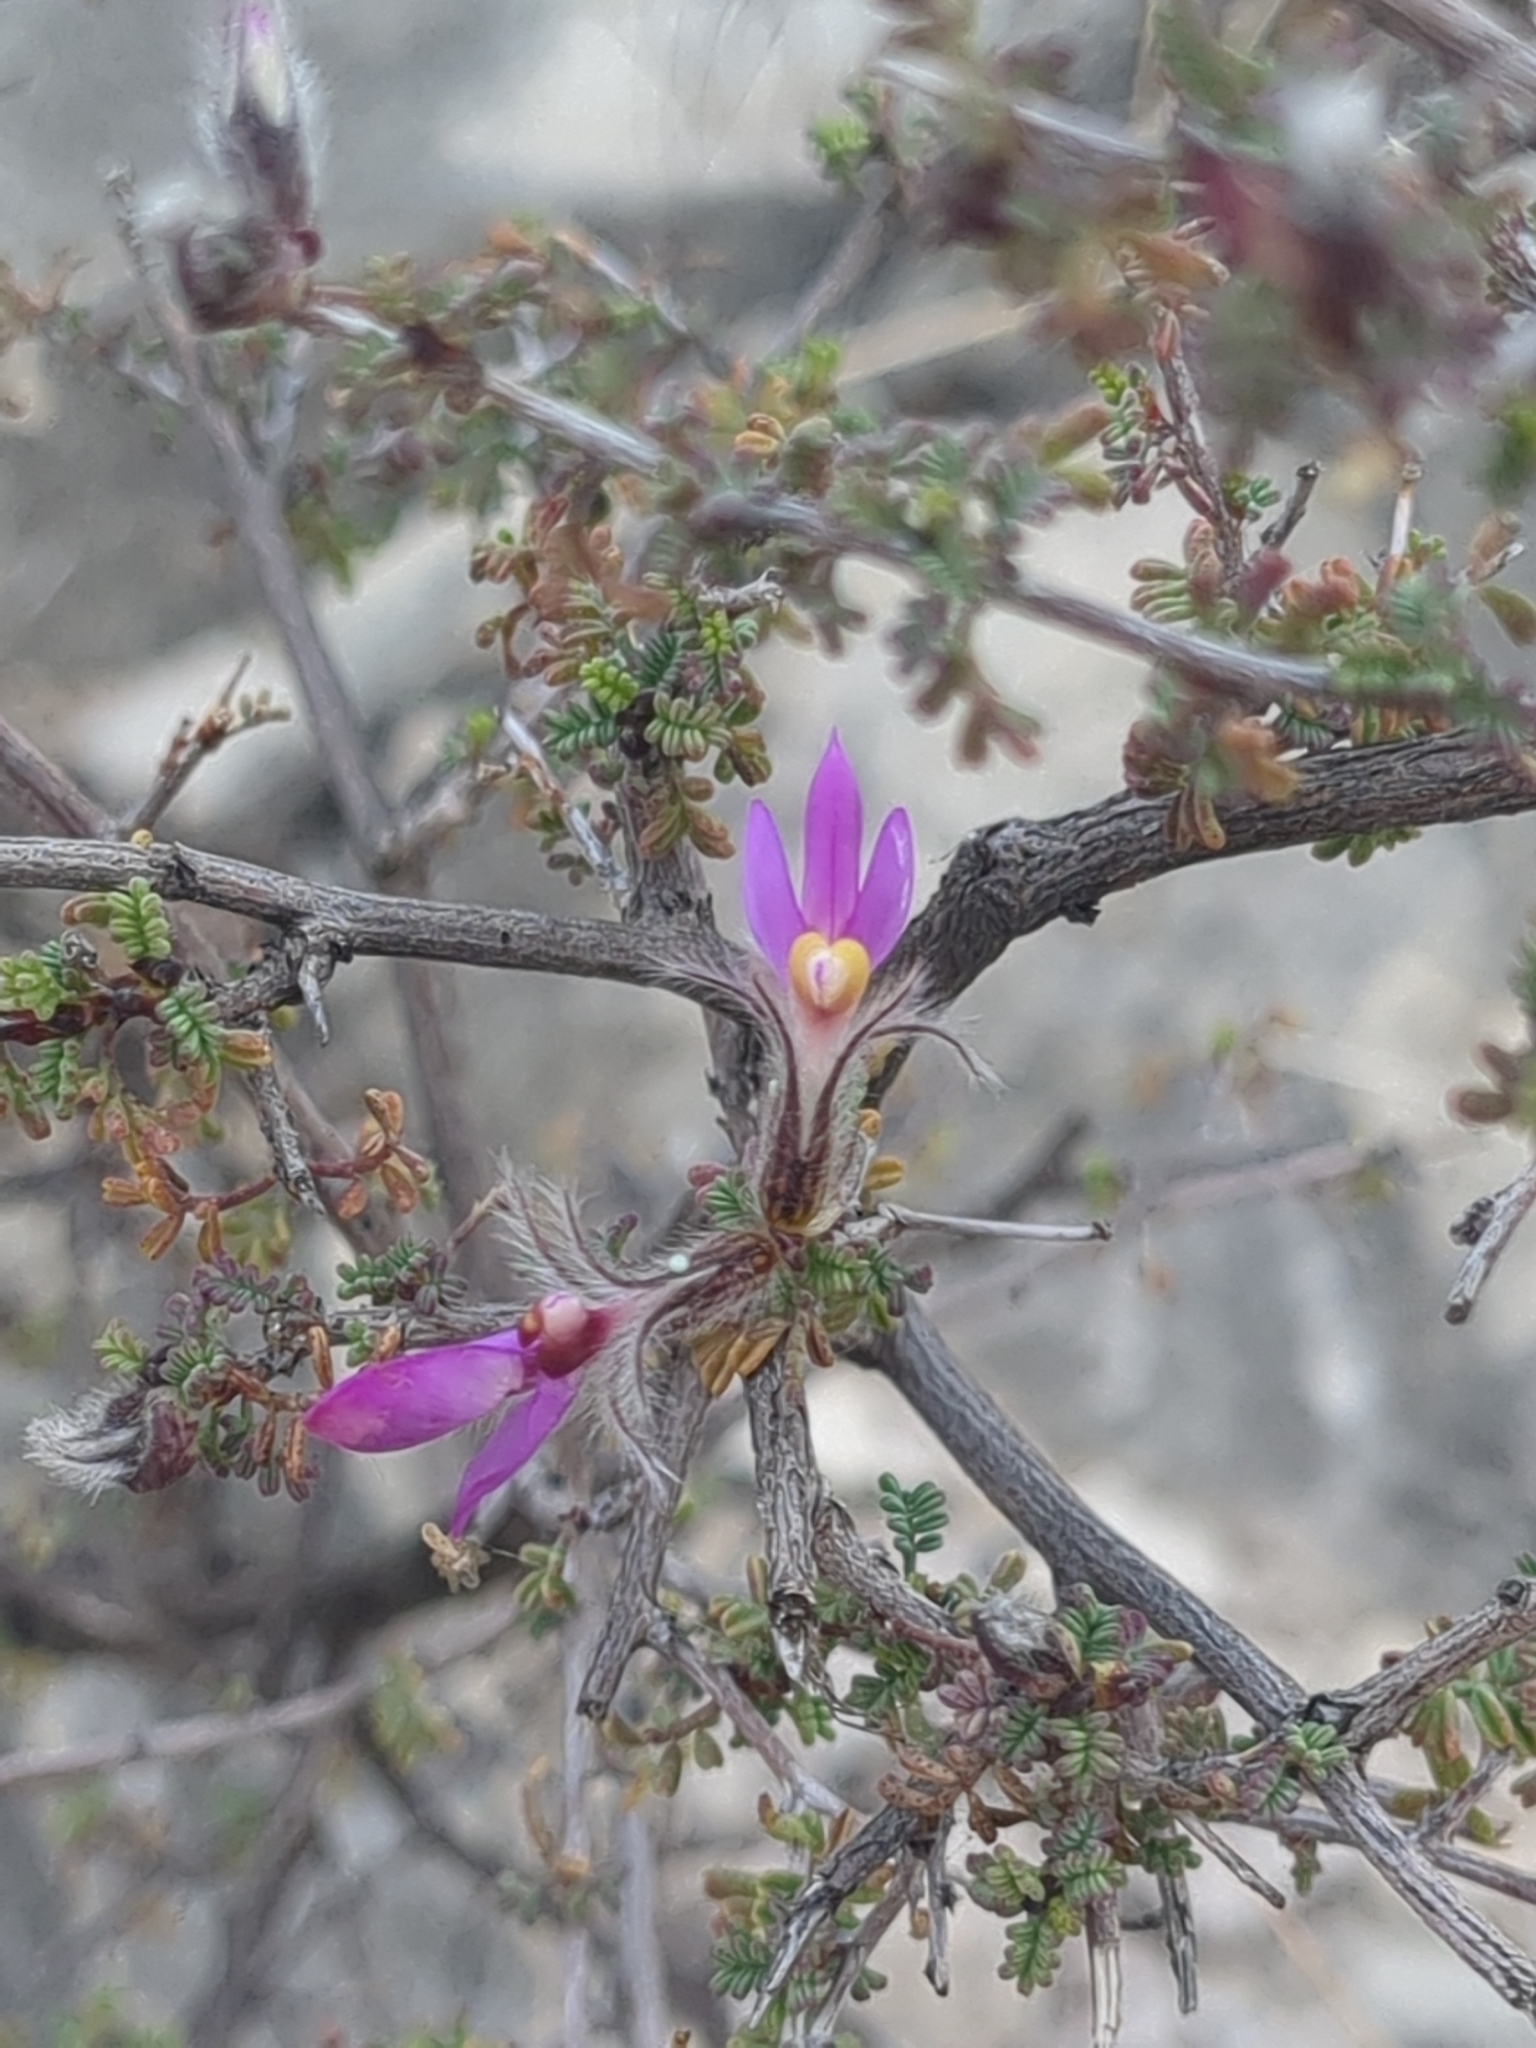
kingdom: Plantae
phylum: Tracheophyta
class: Magnoliopsida
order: Fabales
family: Fabaceae
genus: Dalea
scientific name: Dalea formosa
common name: Feather-plume dalea
